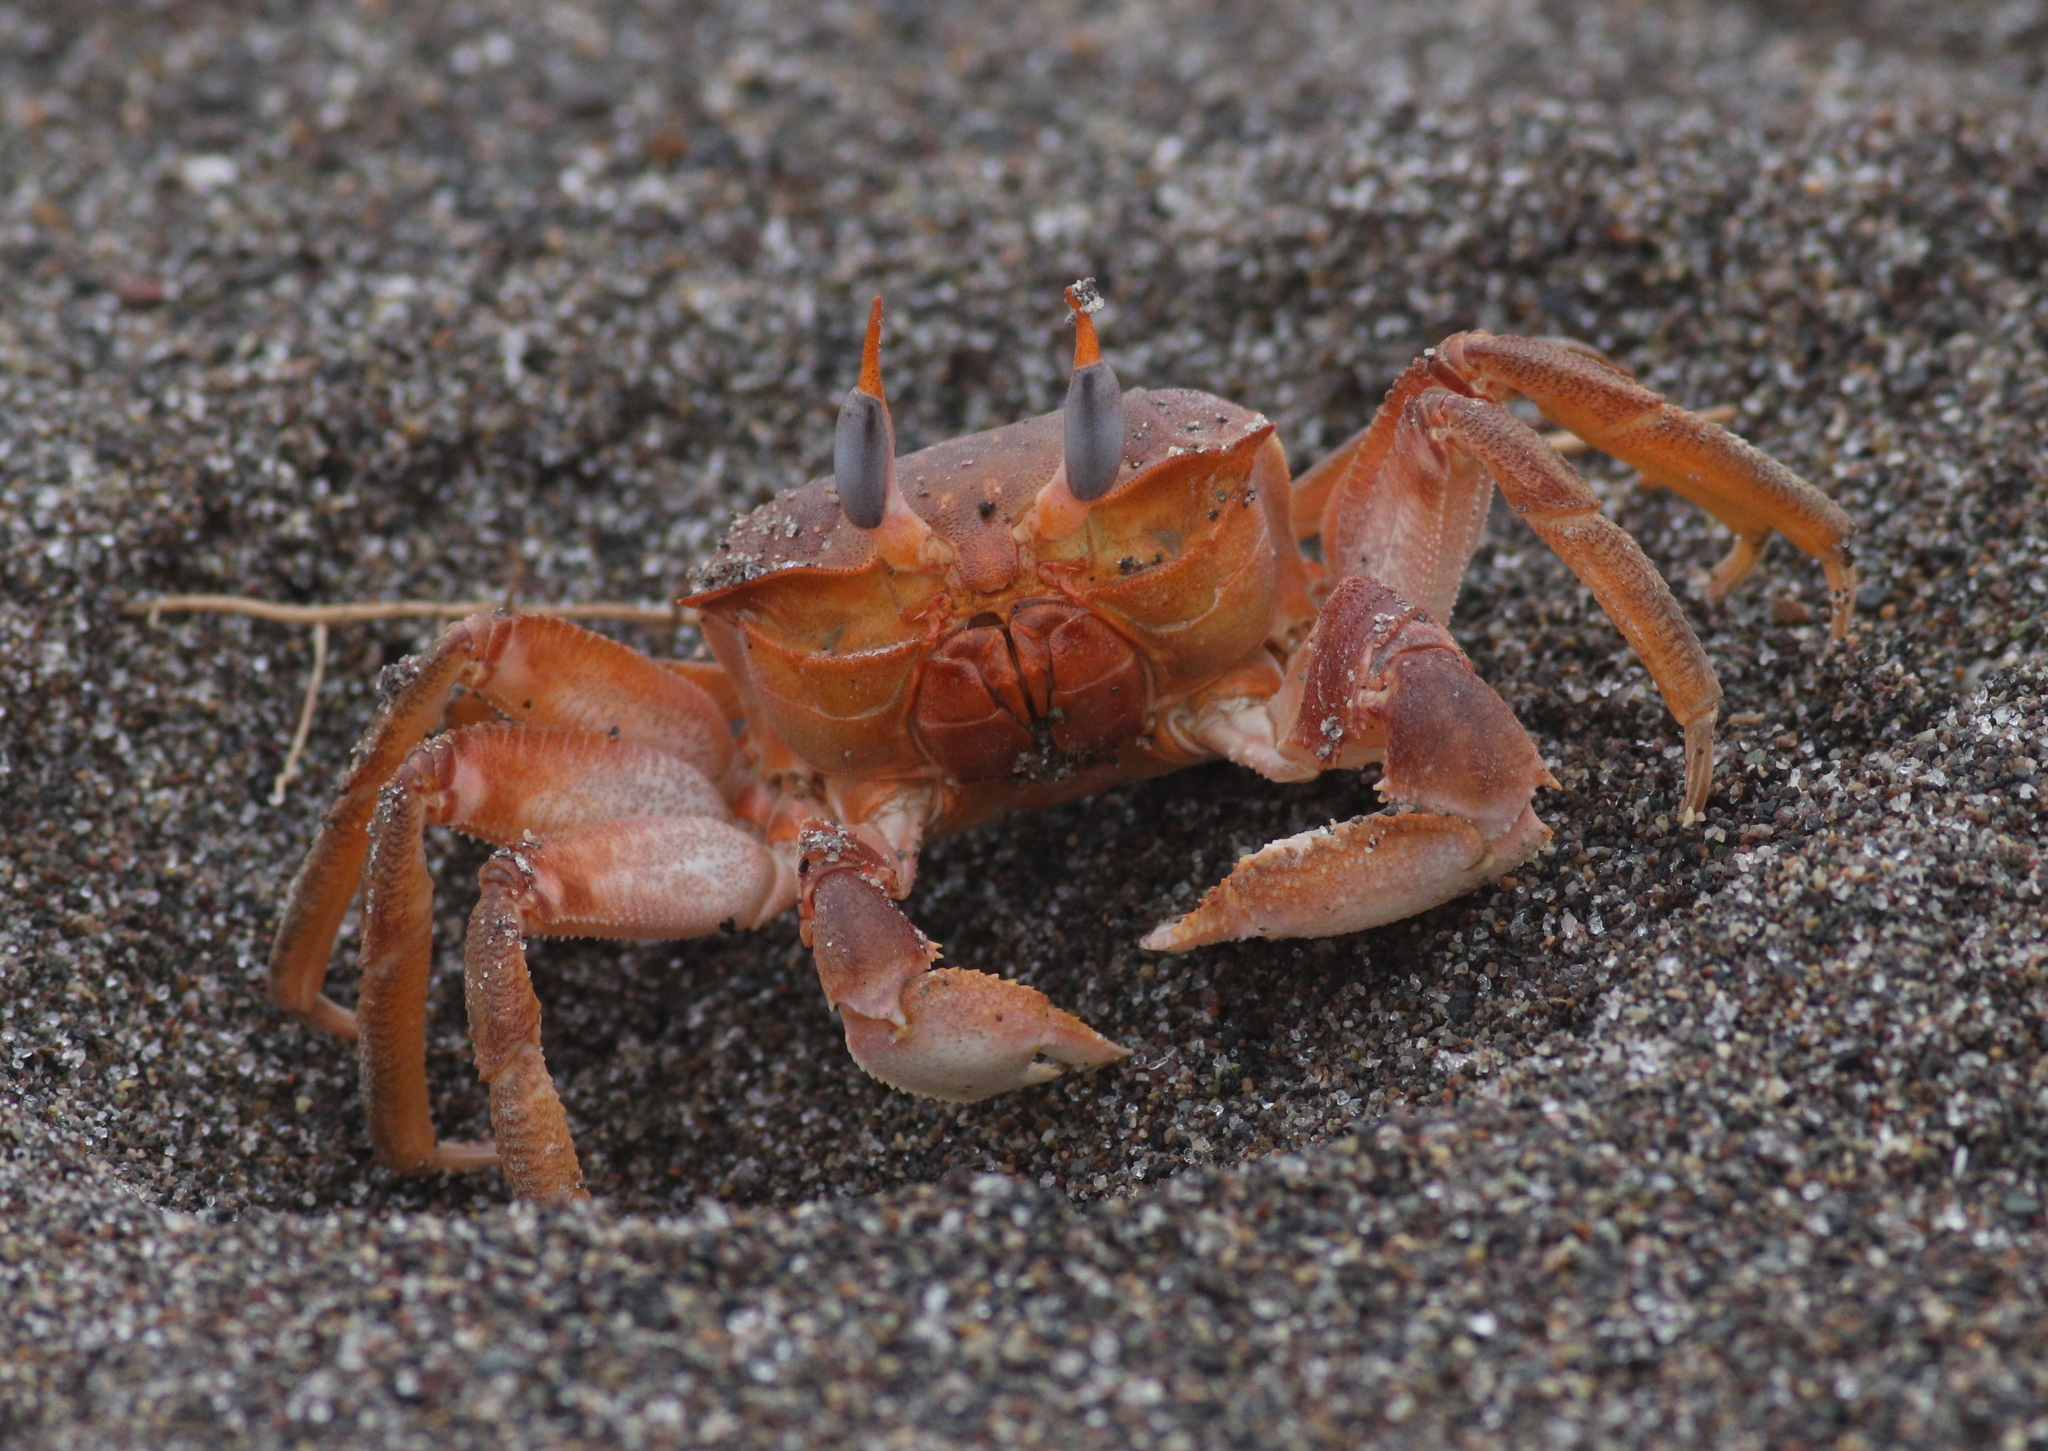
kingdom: Animalia
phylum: Arthropoda
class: Malacostraca
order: Decapoda
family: Ocypodidae
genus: Ocypode
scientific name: Ocypode gaudichaudii
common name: Pacific ghost crab
